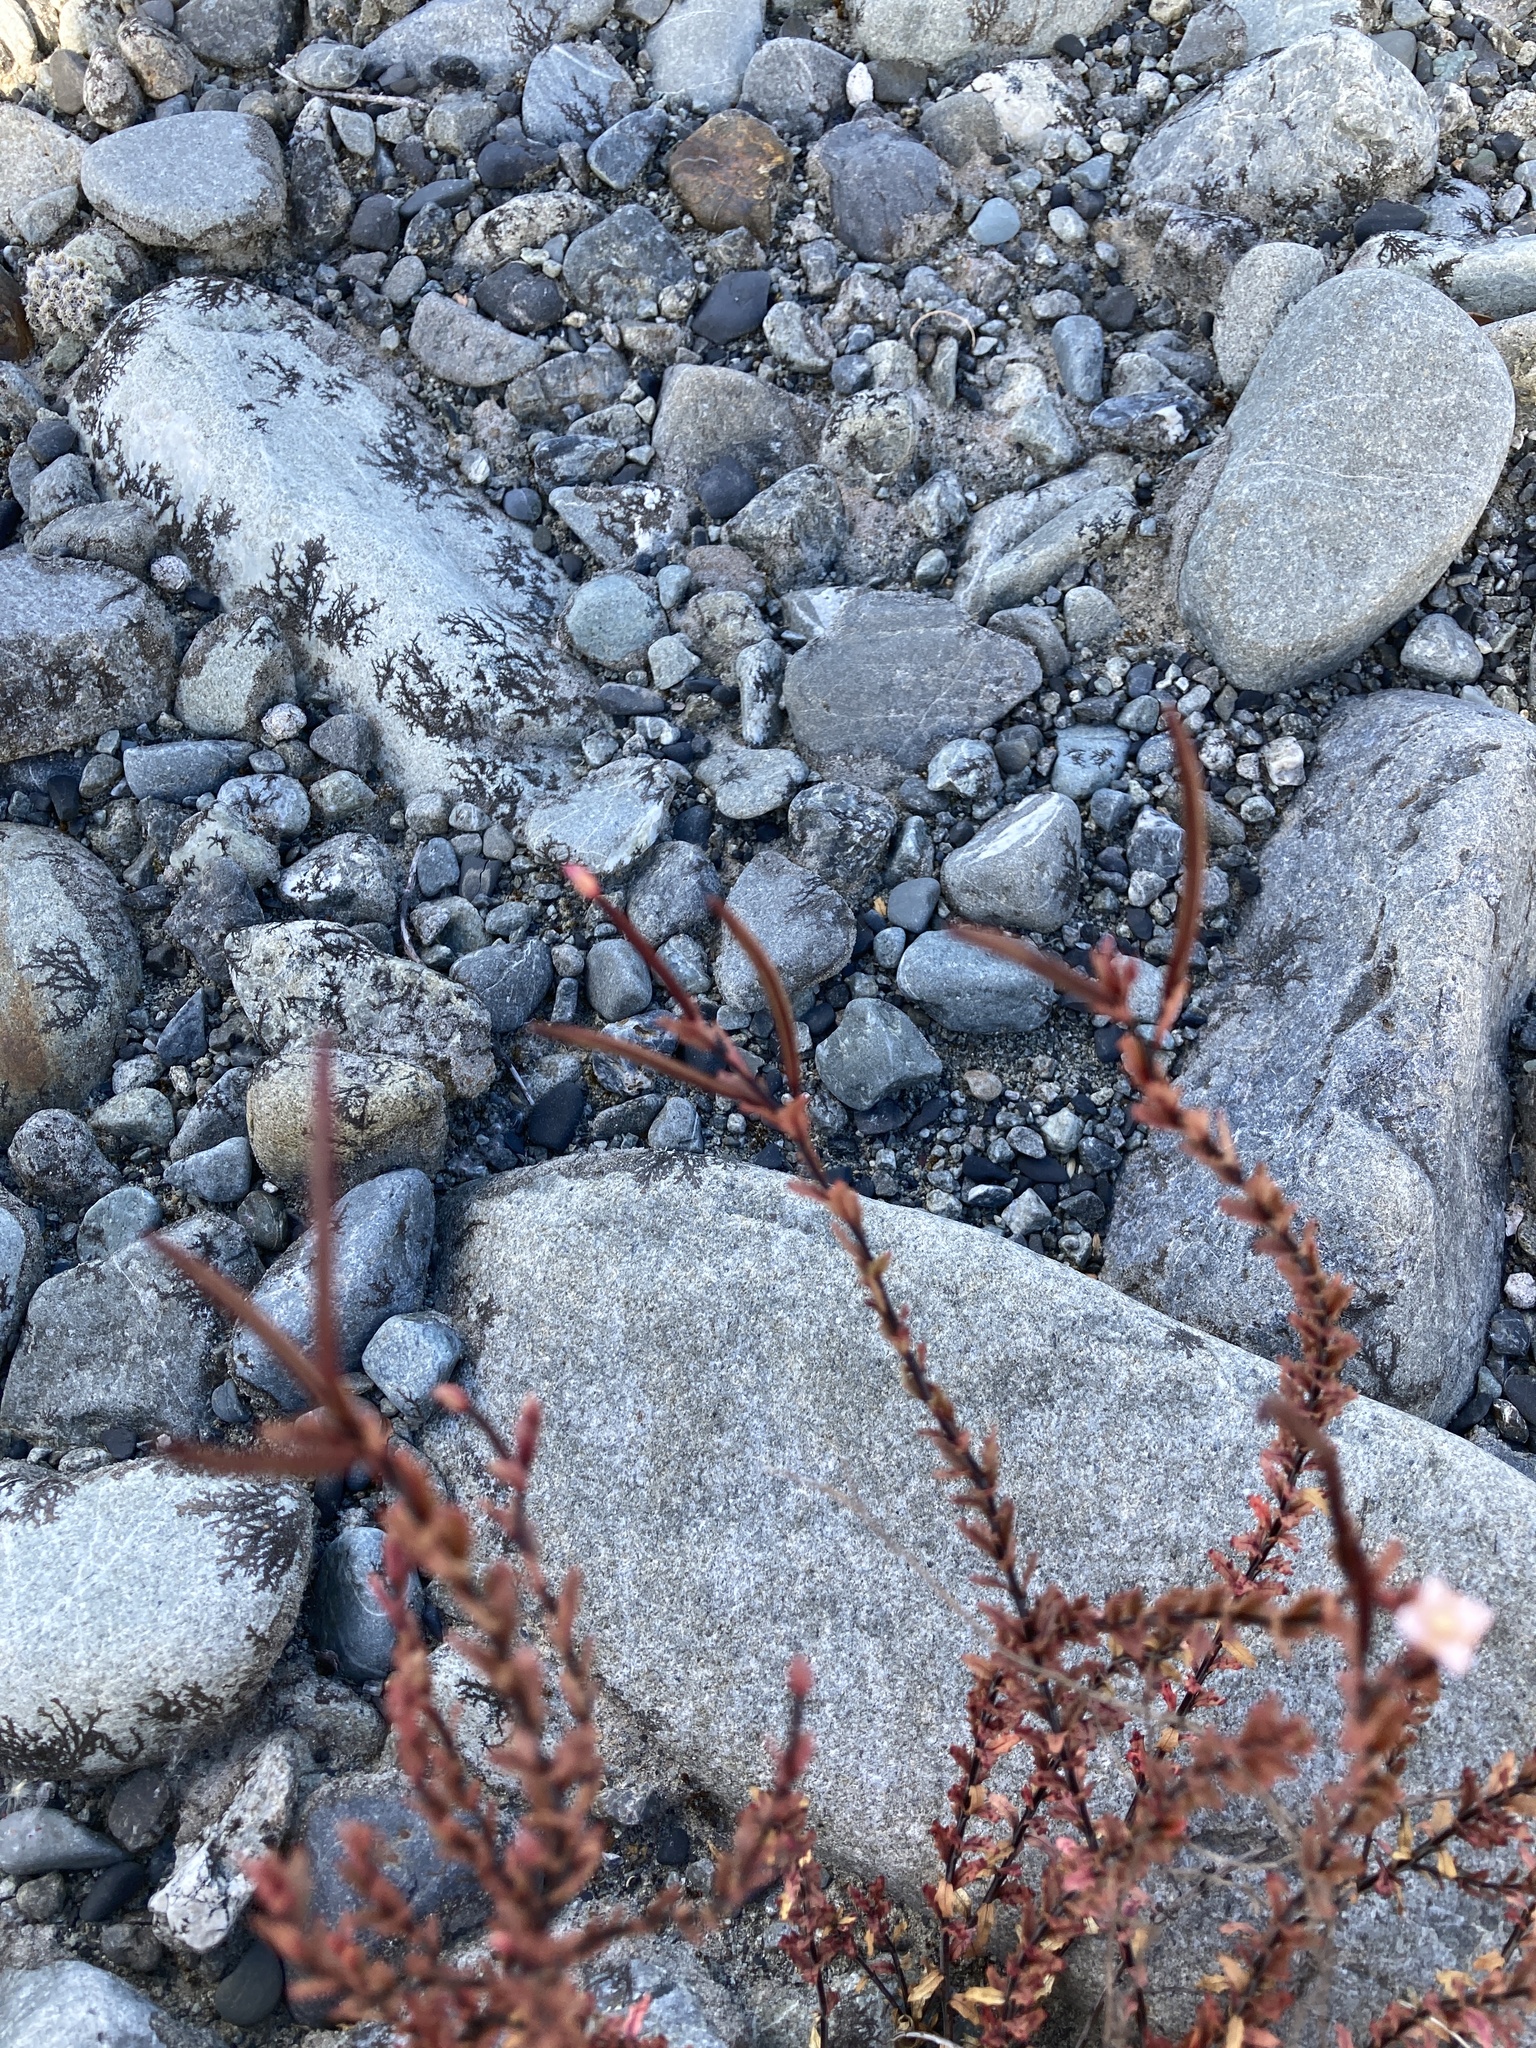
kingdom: Plantae
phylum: Tracheophyta
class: Magnoliopsida
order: Myrtales
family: Onagraceae
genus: Epilobium
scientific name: Epilobium melanocaulon
